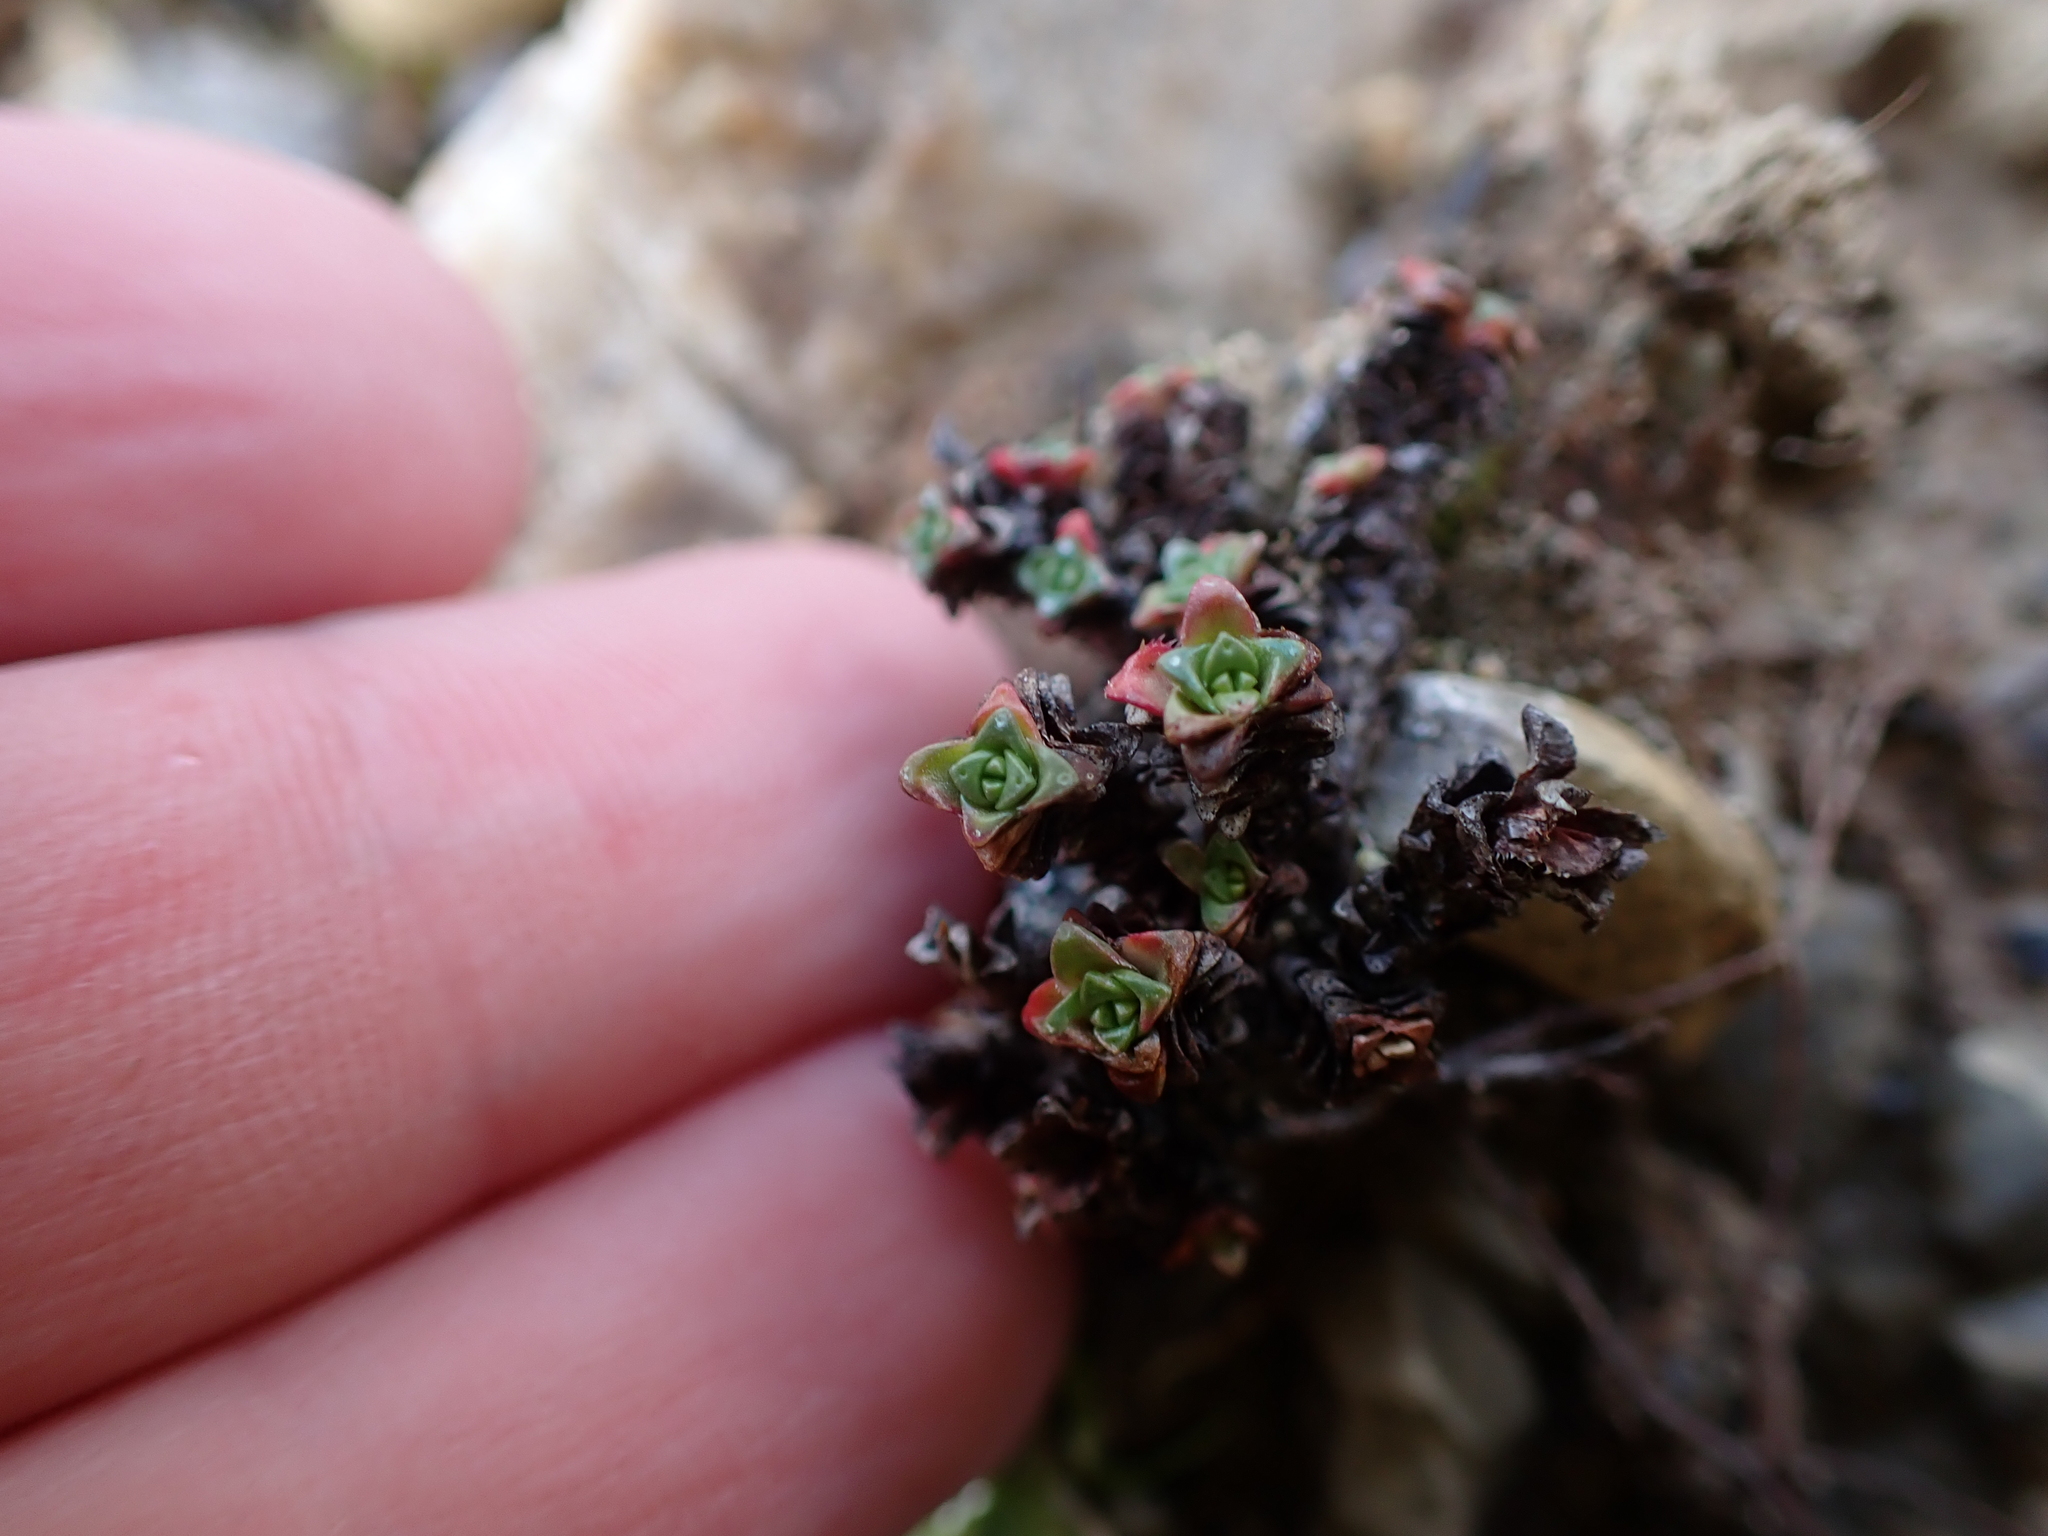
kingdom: Plantae
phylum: Tracheophyta
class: Magnoliopsida
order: Saxifragales
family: Saxifragaceae
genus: Saxifraga
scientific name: Saxifraga oppositifolia
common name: Purple saxifrage
